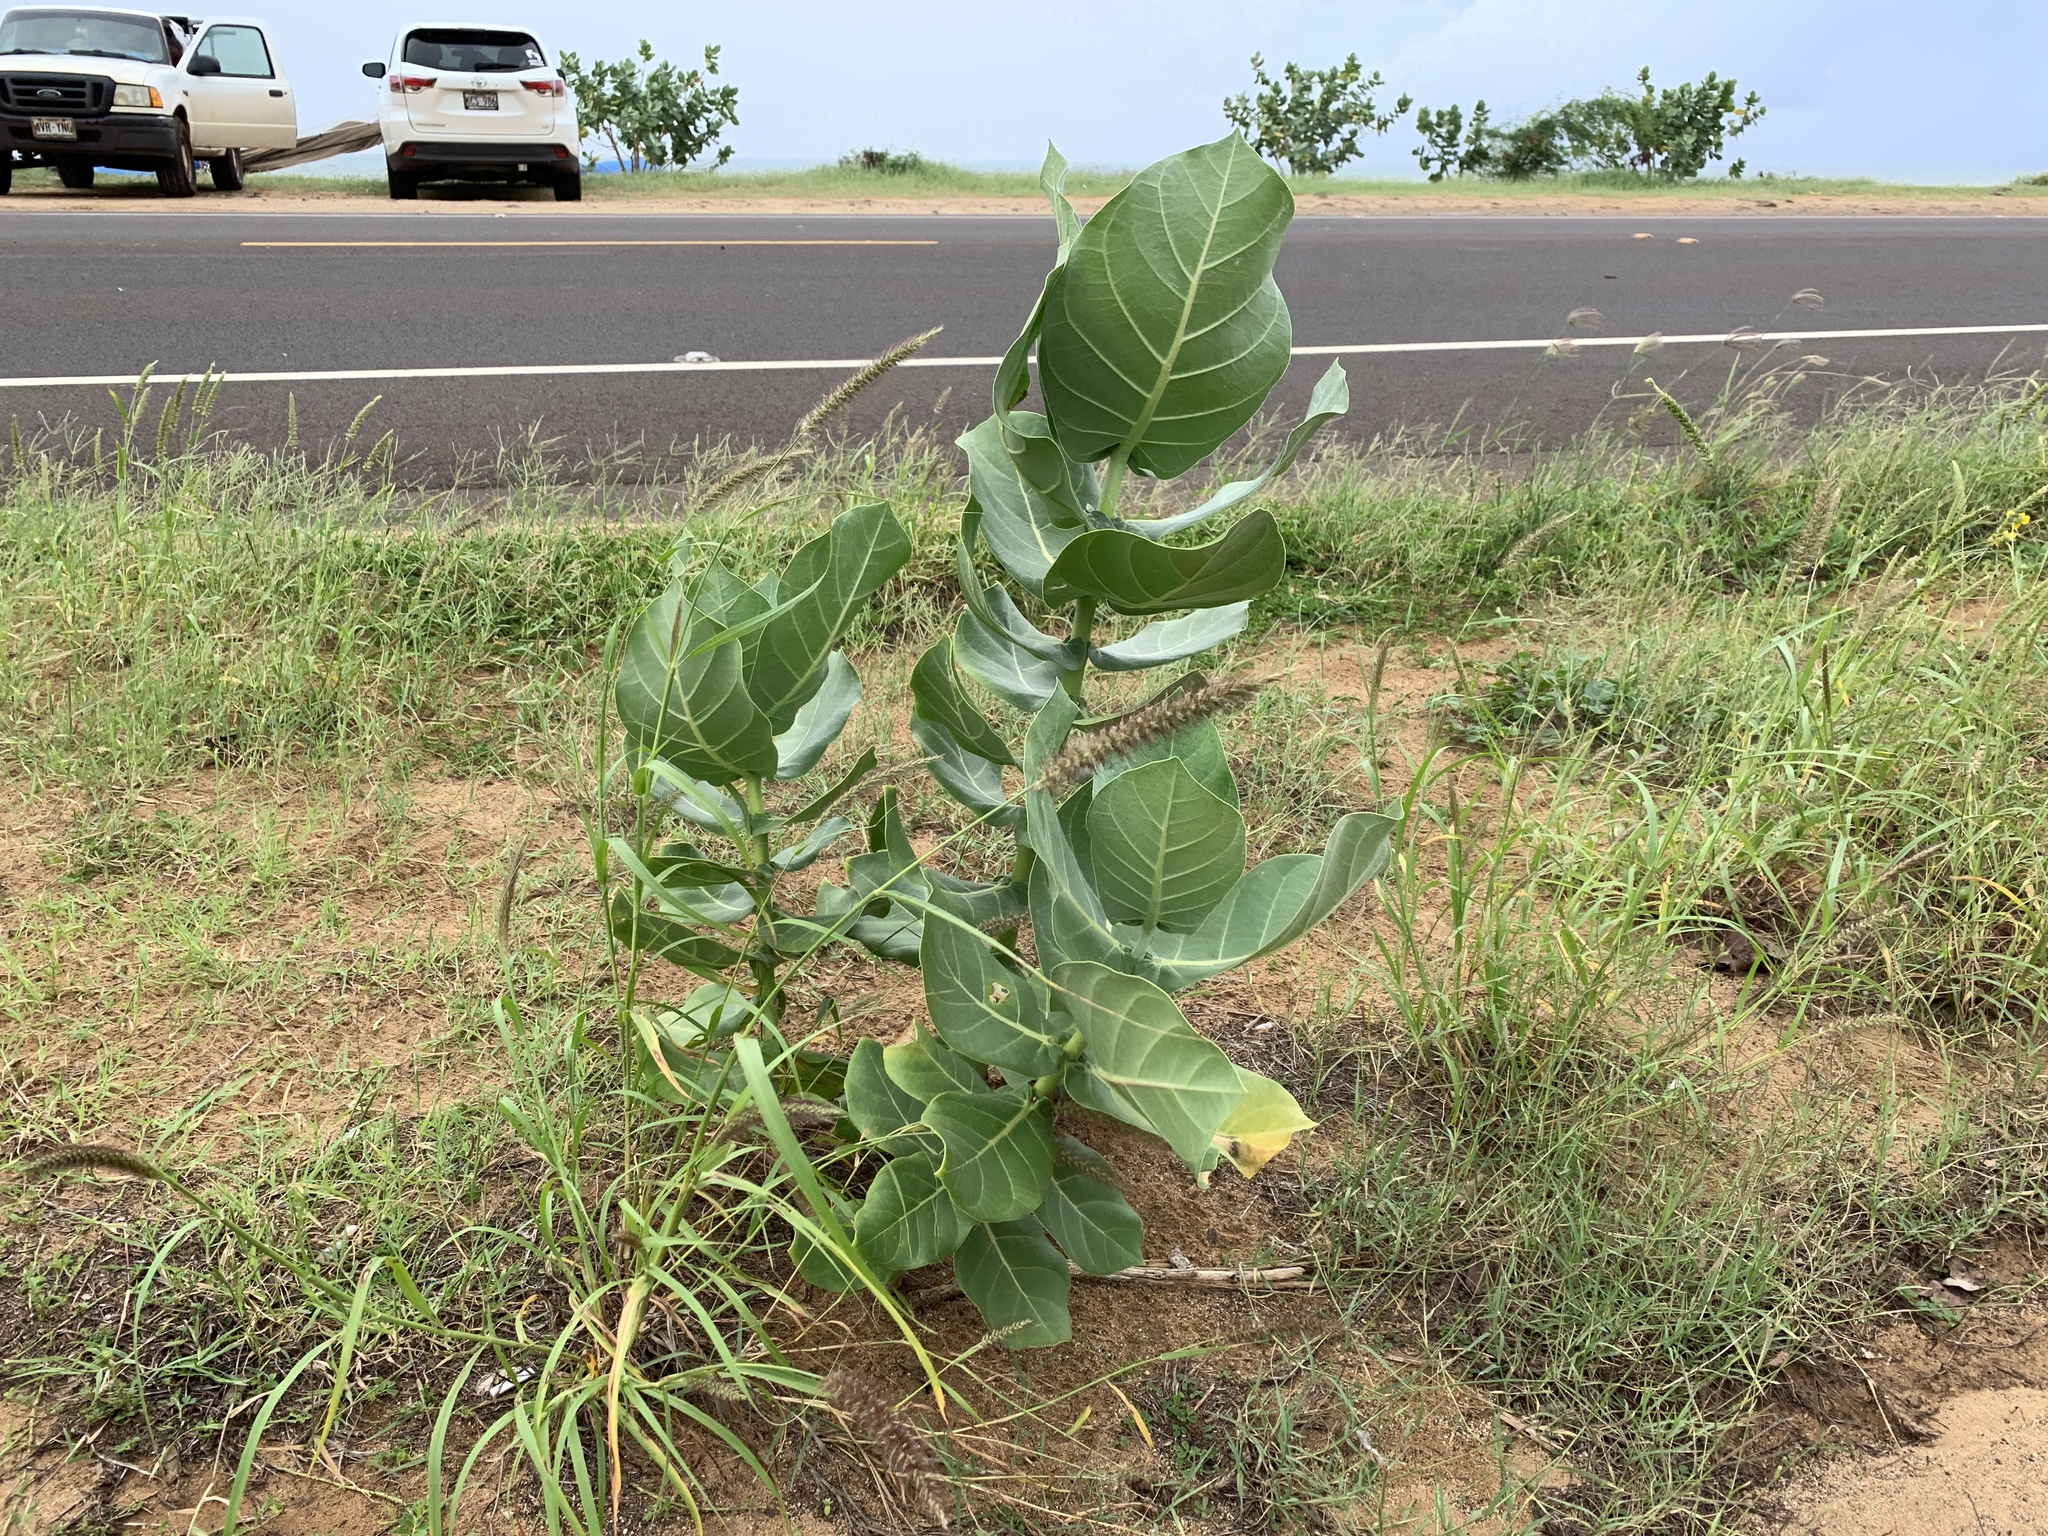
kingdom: Plantae
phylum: Tracheophyta
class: Magnoliopsida
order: Gentianales
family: Apocynaceae
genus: Calotropis
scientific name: Calotropis procera
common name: Roostertree
